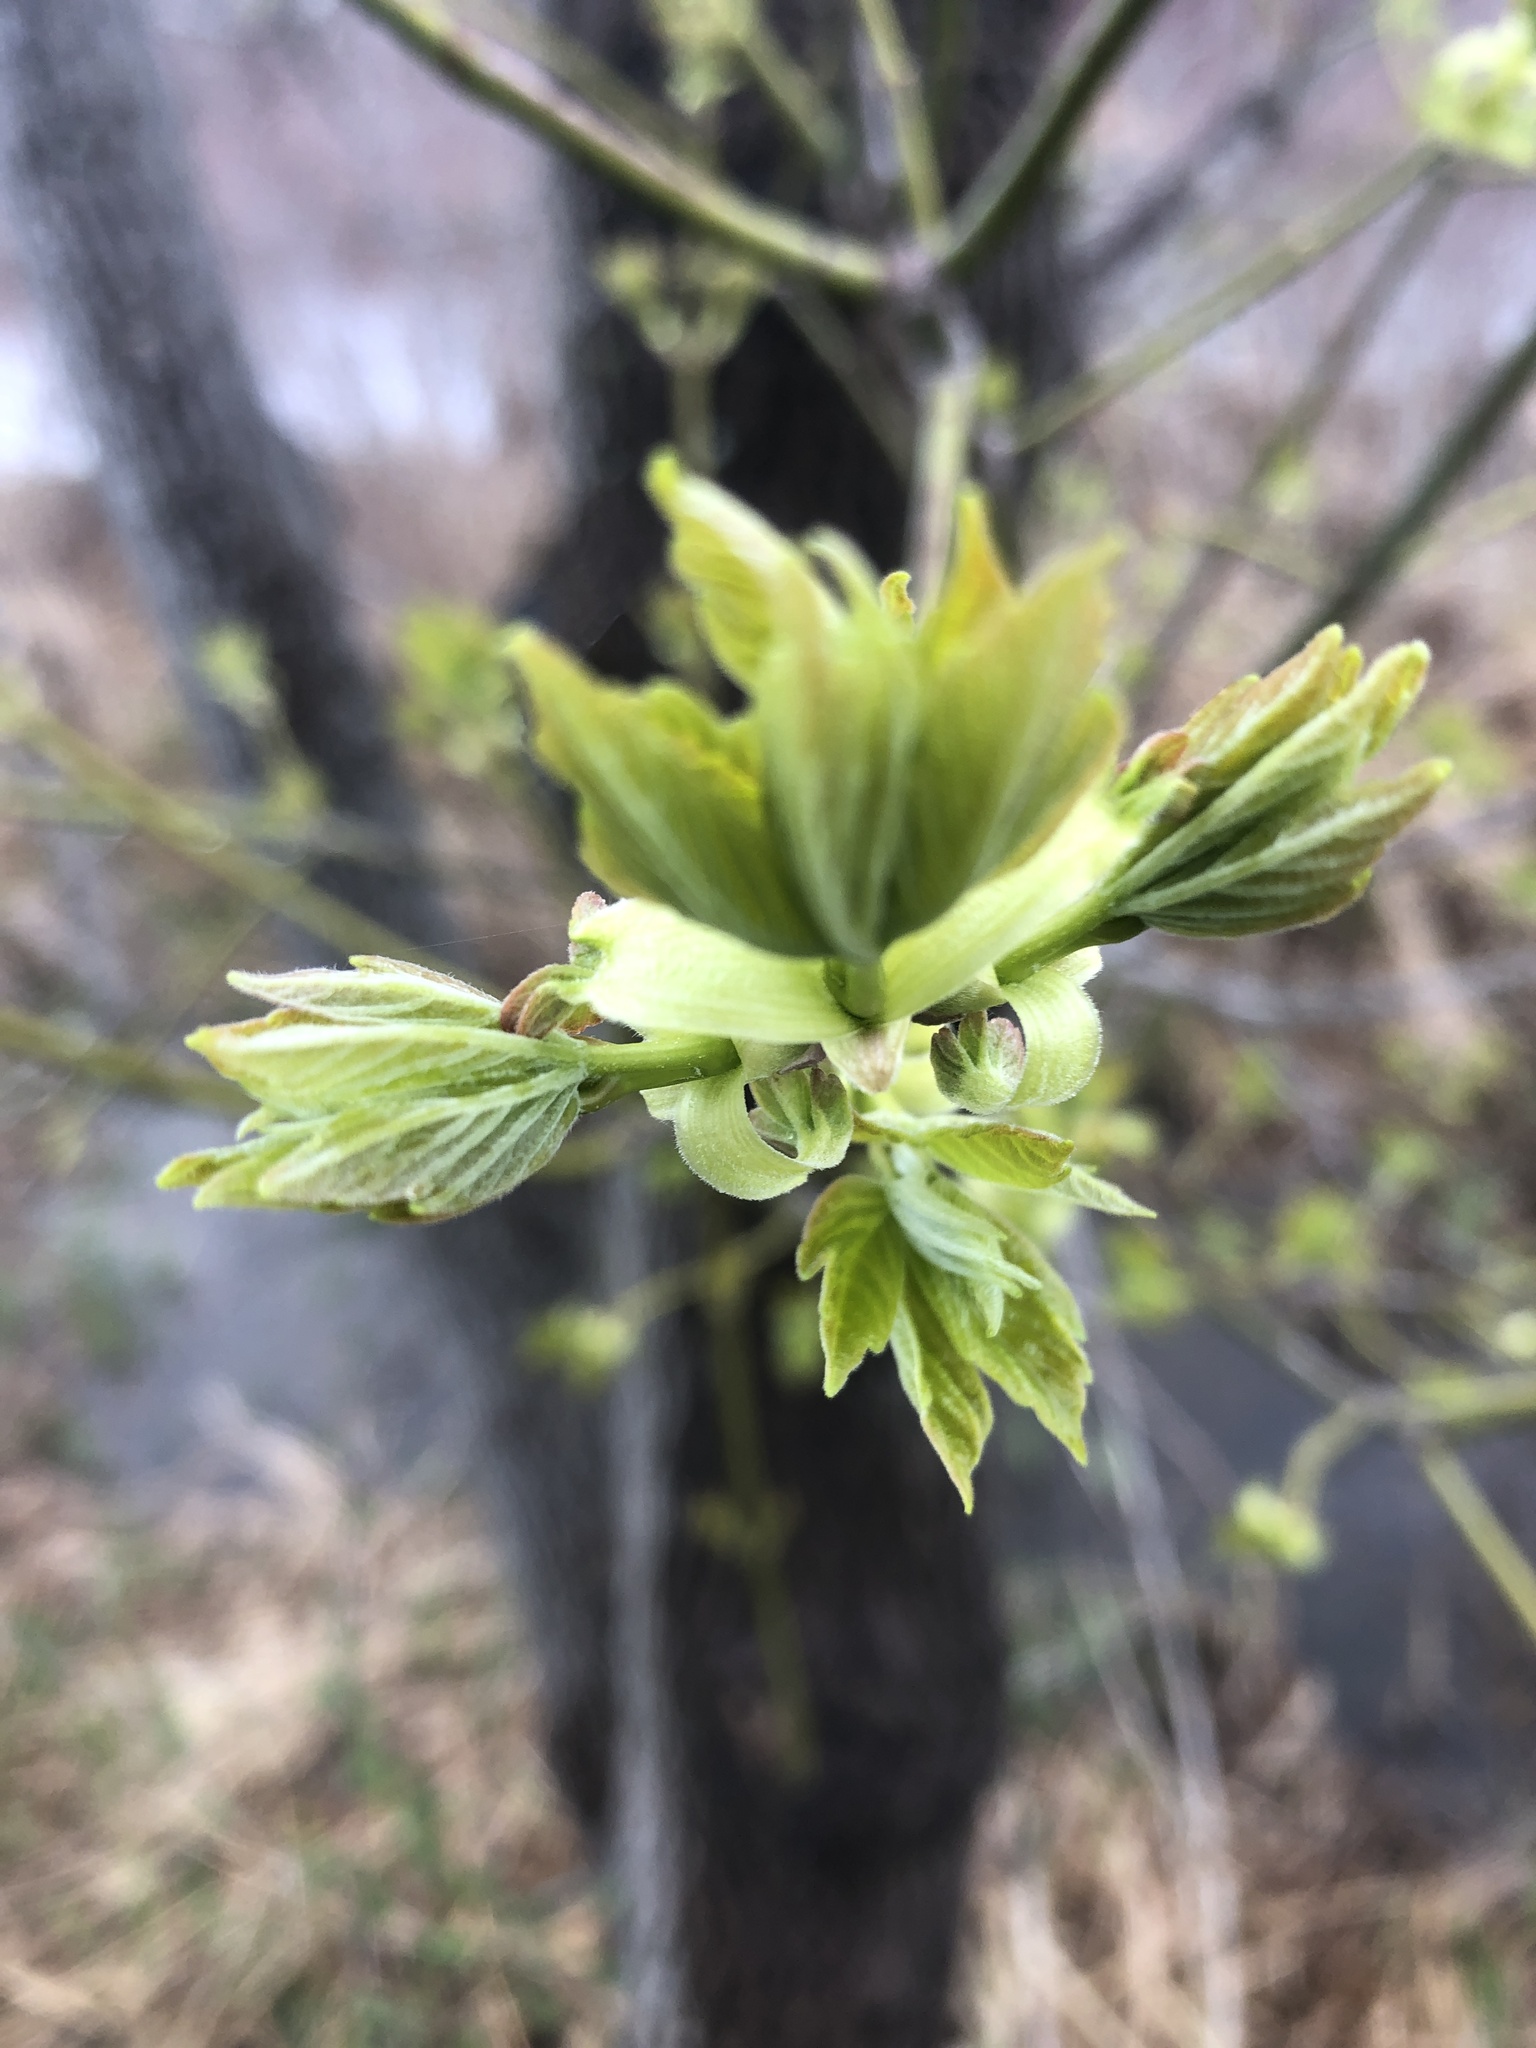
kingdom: Plantae
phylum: Tracheophyta
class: Magnoliopsida
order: Sapindales
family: Sapindaceae
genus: Acer
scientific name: Acer negundo
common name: Ashleaf maple
